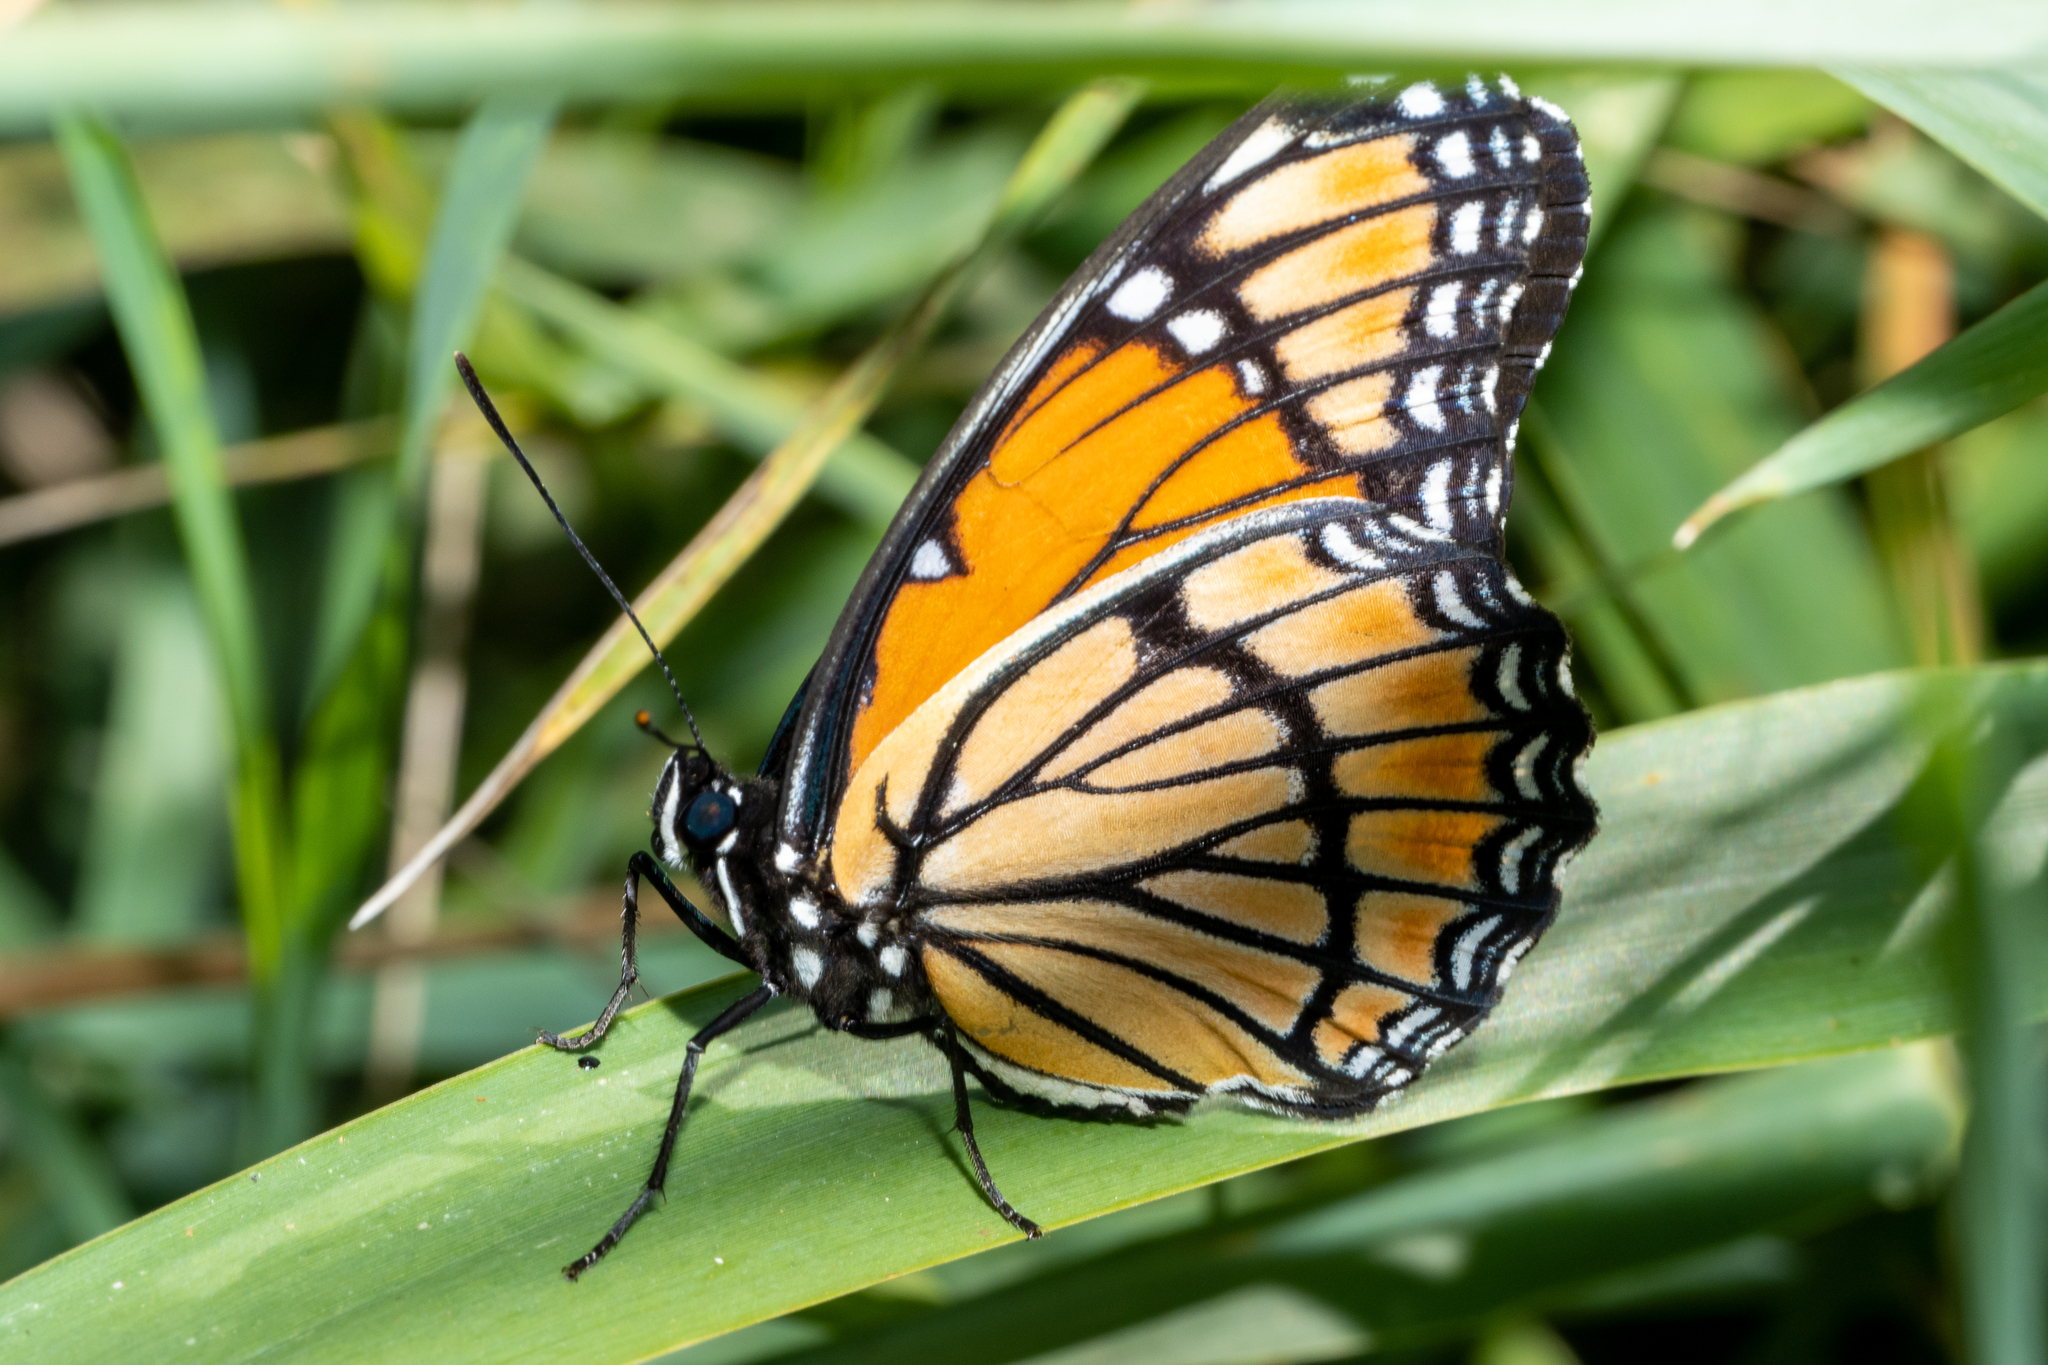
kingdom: Animalia
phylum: Arthropoda
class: Insecta
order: Lepidoptera
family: Nymphalidae
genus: Limenitis
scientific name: Limenitis archippus
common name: Viceroy
